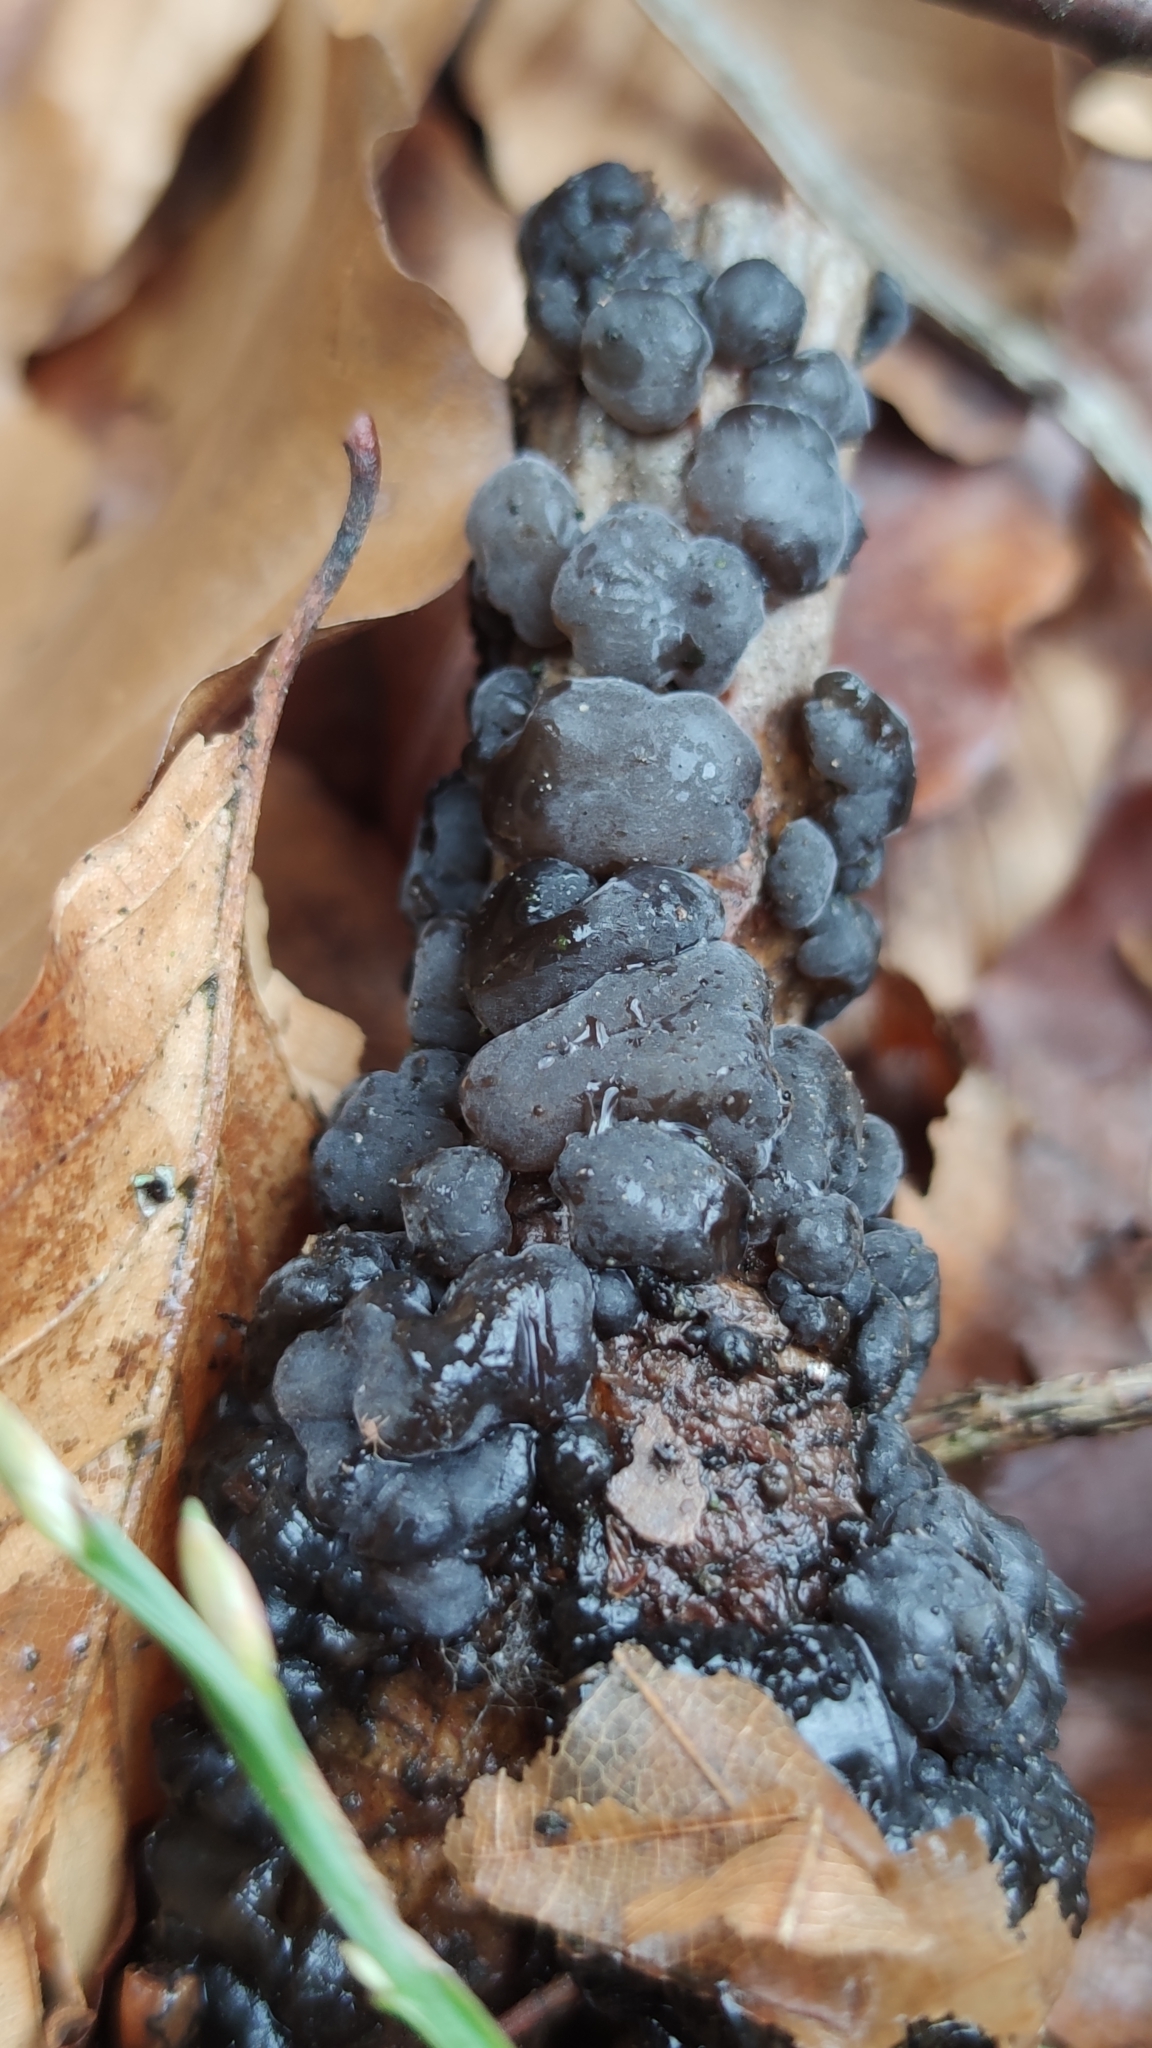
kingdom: Fungi
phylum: Basidiomycota
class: Agaricomycetes
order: Auriculariales
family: Auriculariaceae
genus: Exidia
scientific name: Exidia nigricans
